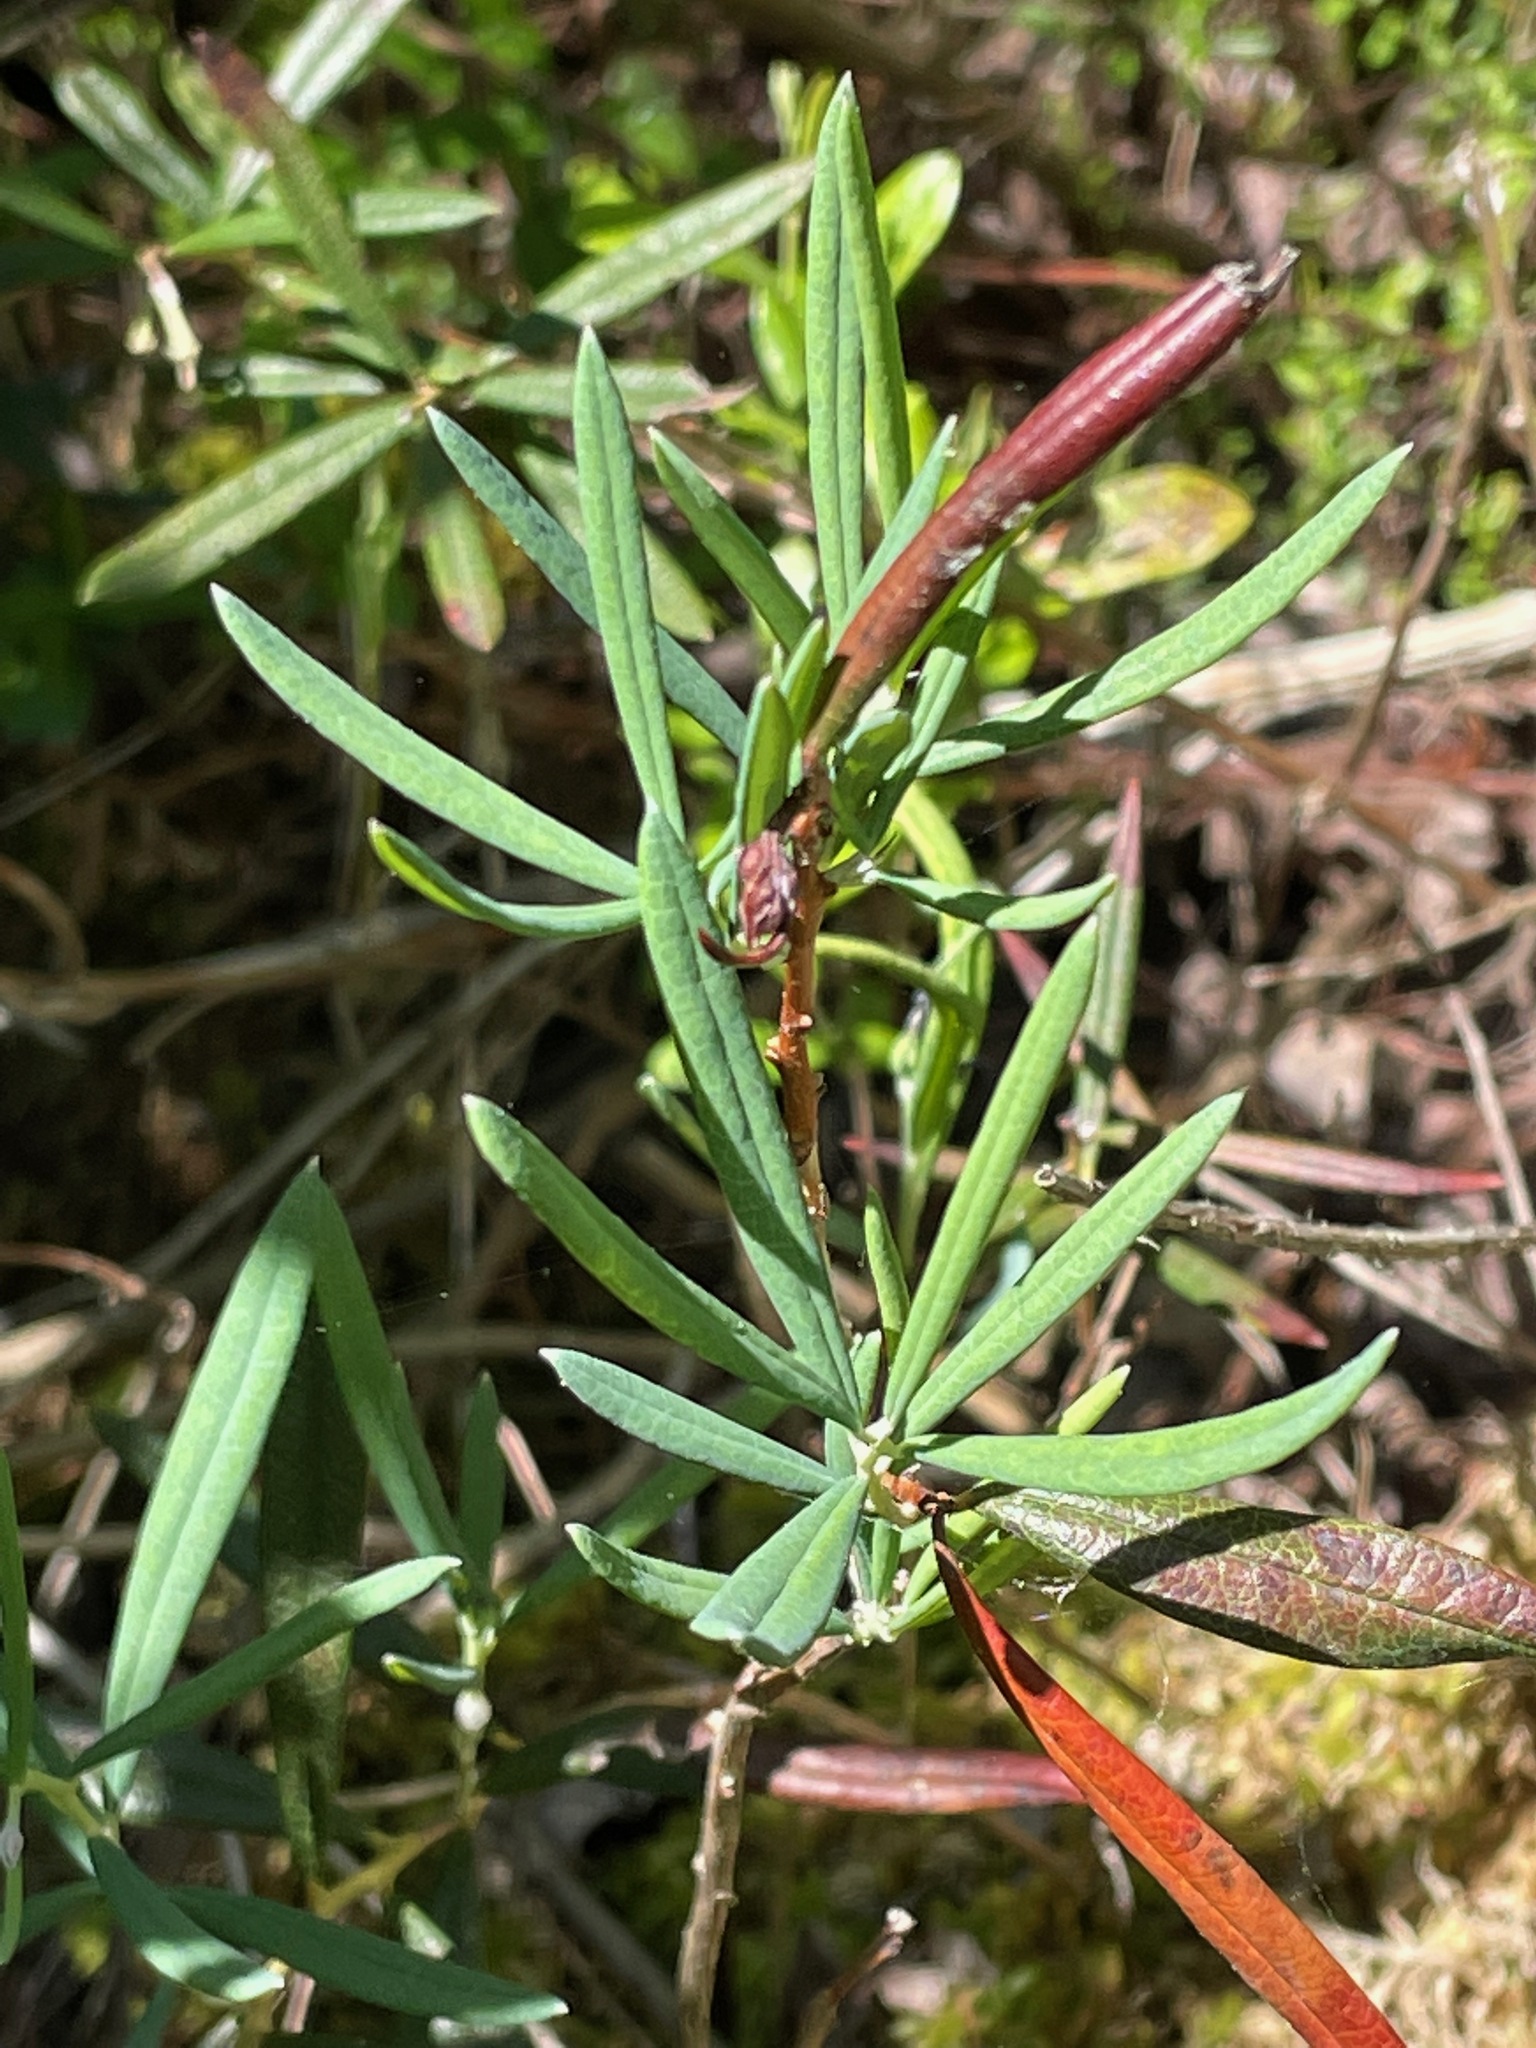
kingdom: Plantae
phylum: Tracheophyta
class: Magnoliopsida
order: Ericales
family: Ericaceae
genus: Andromeda
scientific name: Andromeda polifolia
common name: Bog-rosemary
